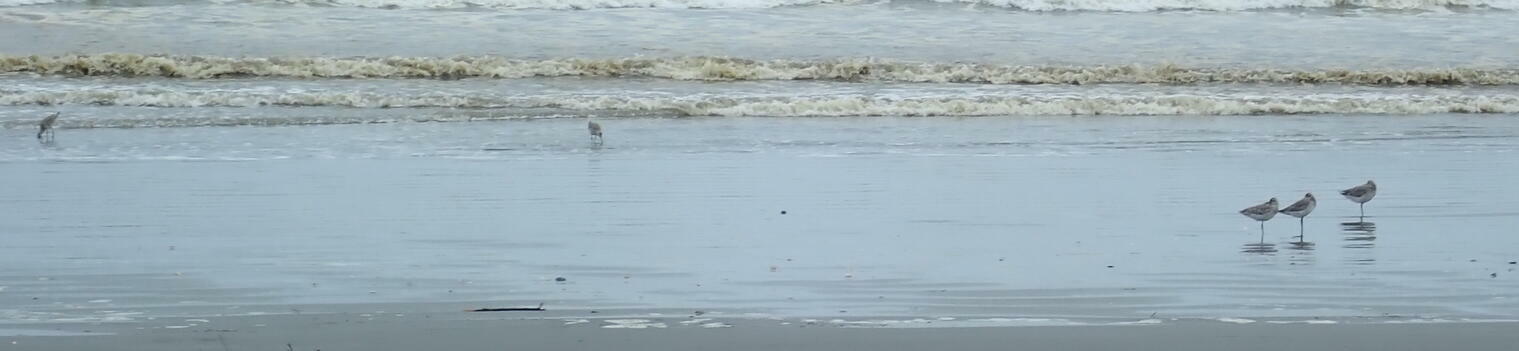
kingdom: Animalia
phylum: Chordata
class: Aves
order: Charadriiformes
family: Scolopacidae
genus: Limosa
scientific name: Limosa lapponica
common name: Bar-tailed godwit
